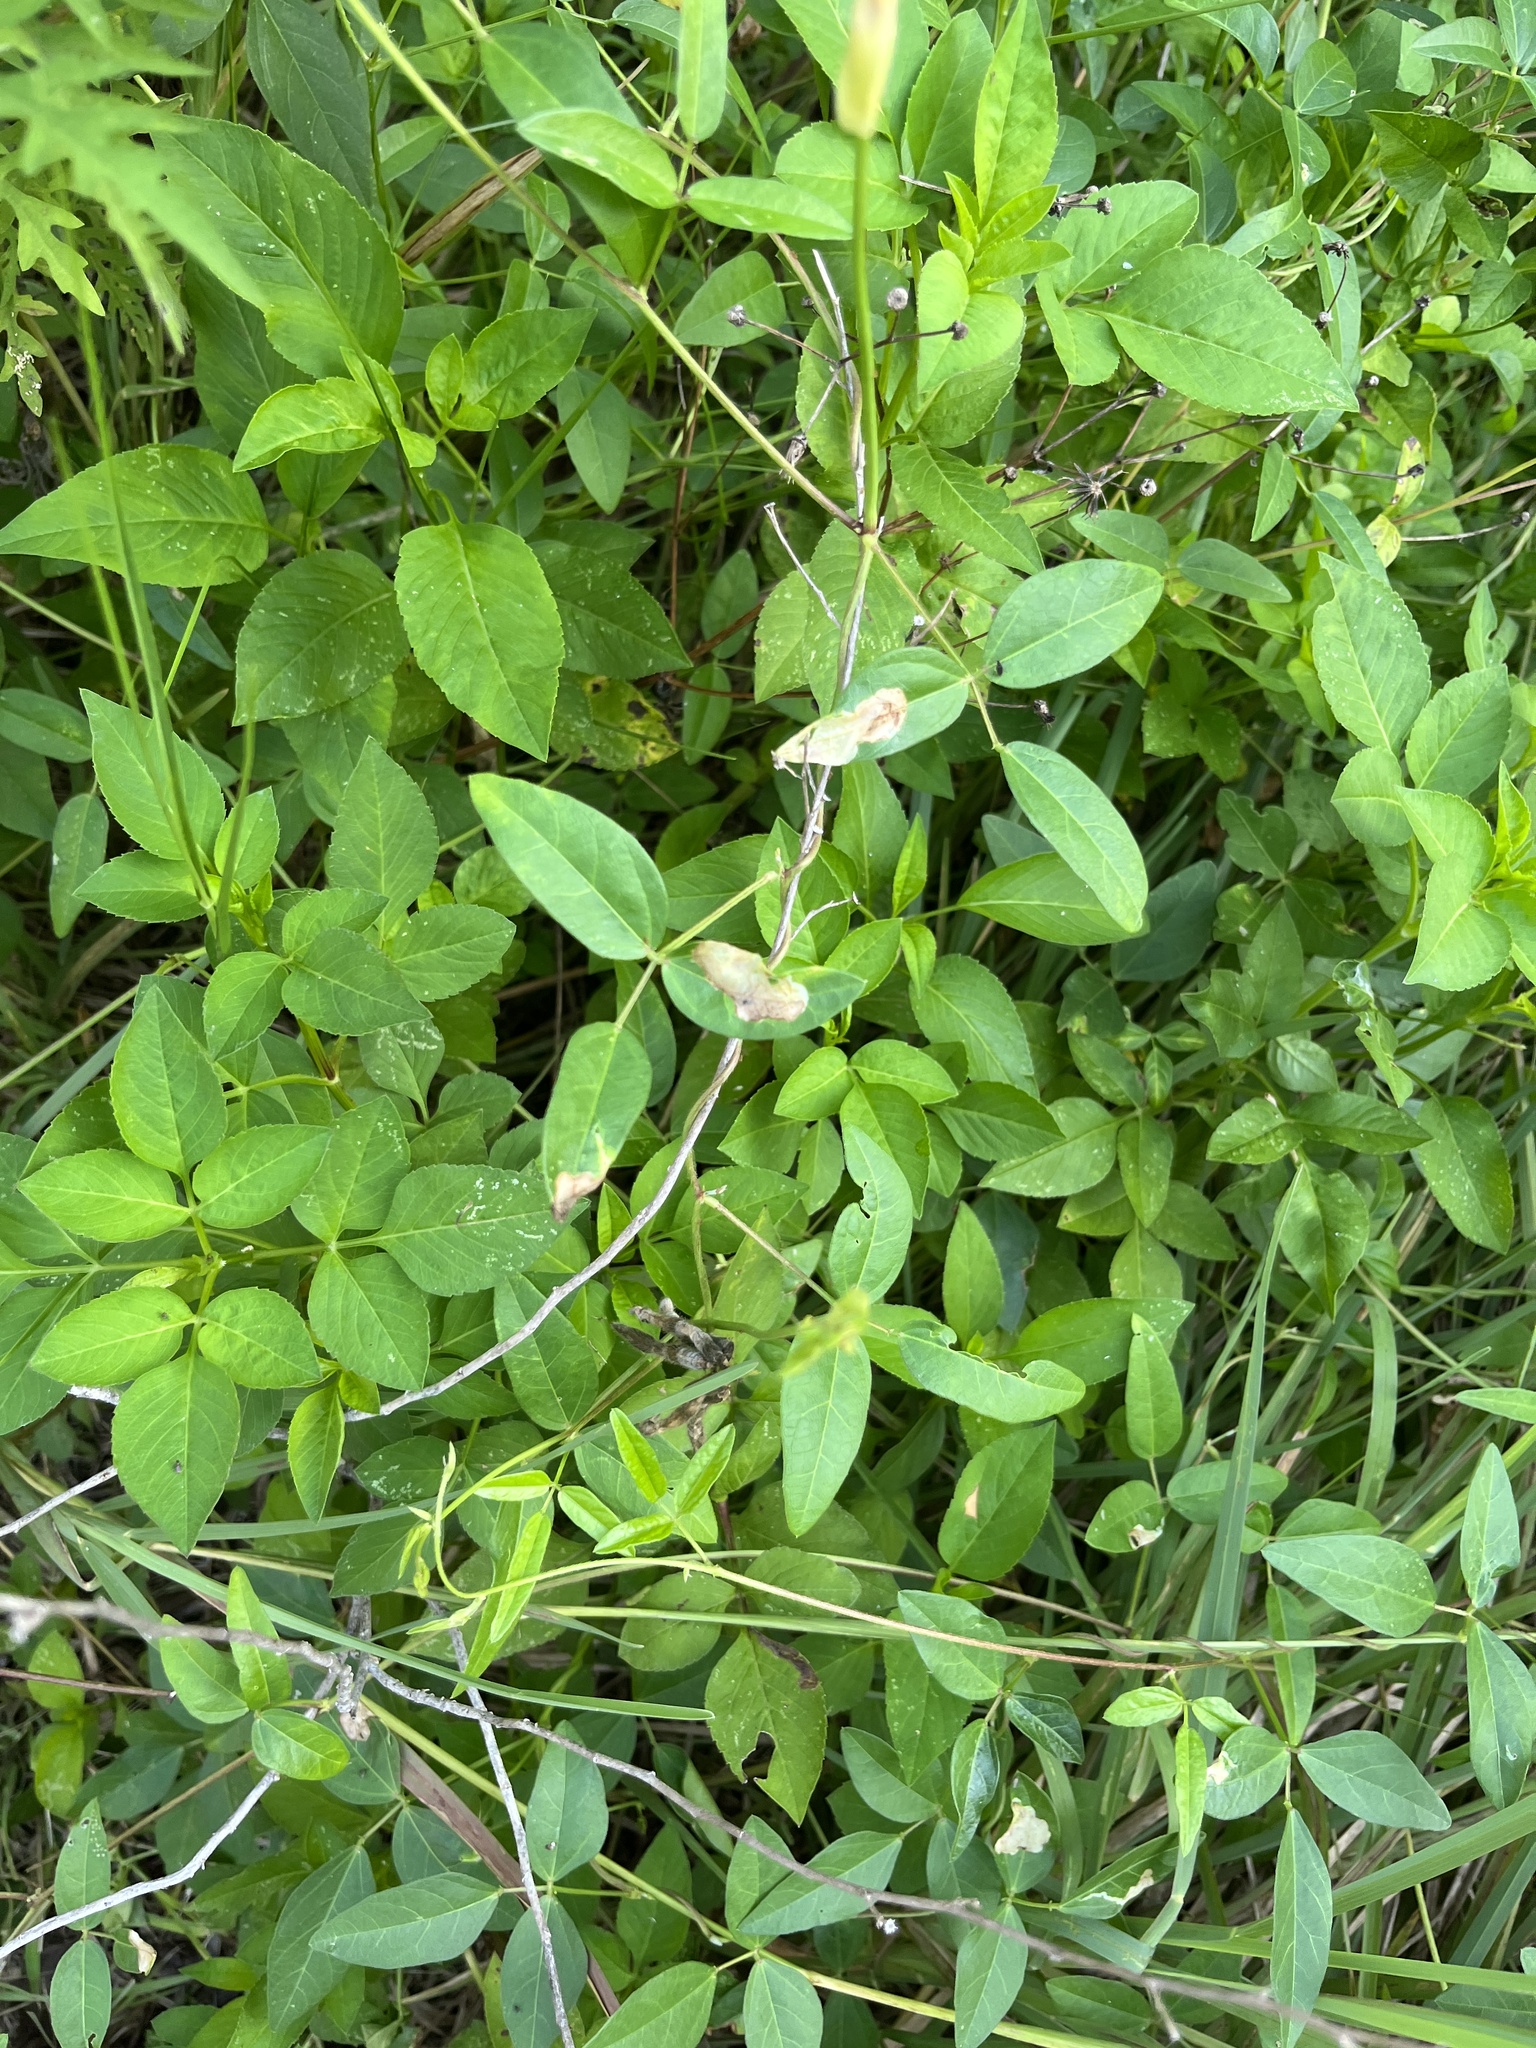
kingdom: Plantae
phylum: Tracheophyta
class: Magnoliopsida
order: Fabales
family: Fabaceae
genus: Vigna
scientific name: Vigna luteola
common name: Hairypod cowpea
